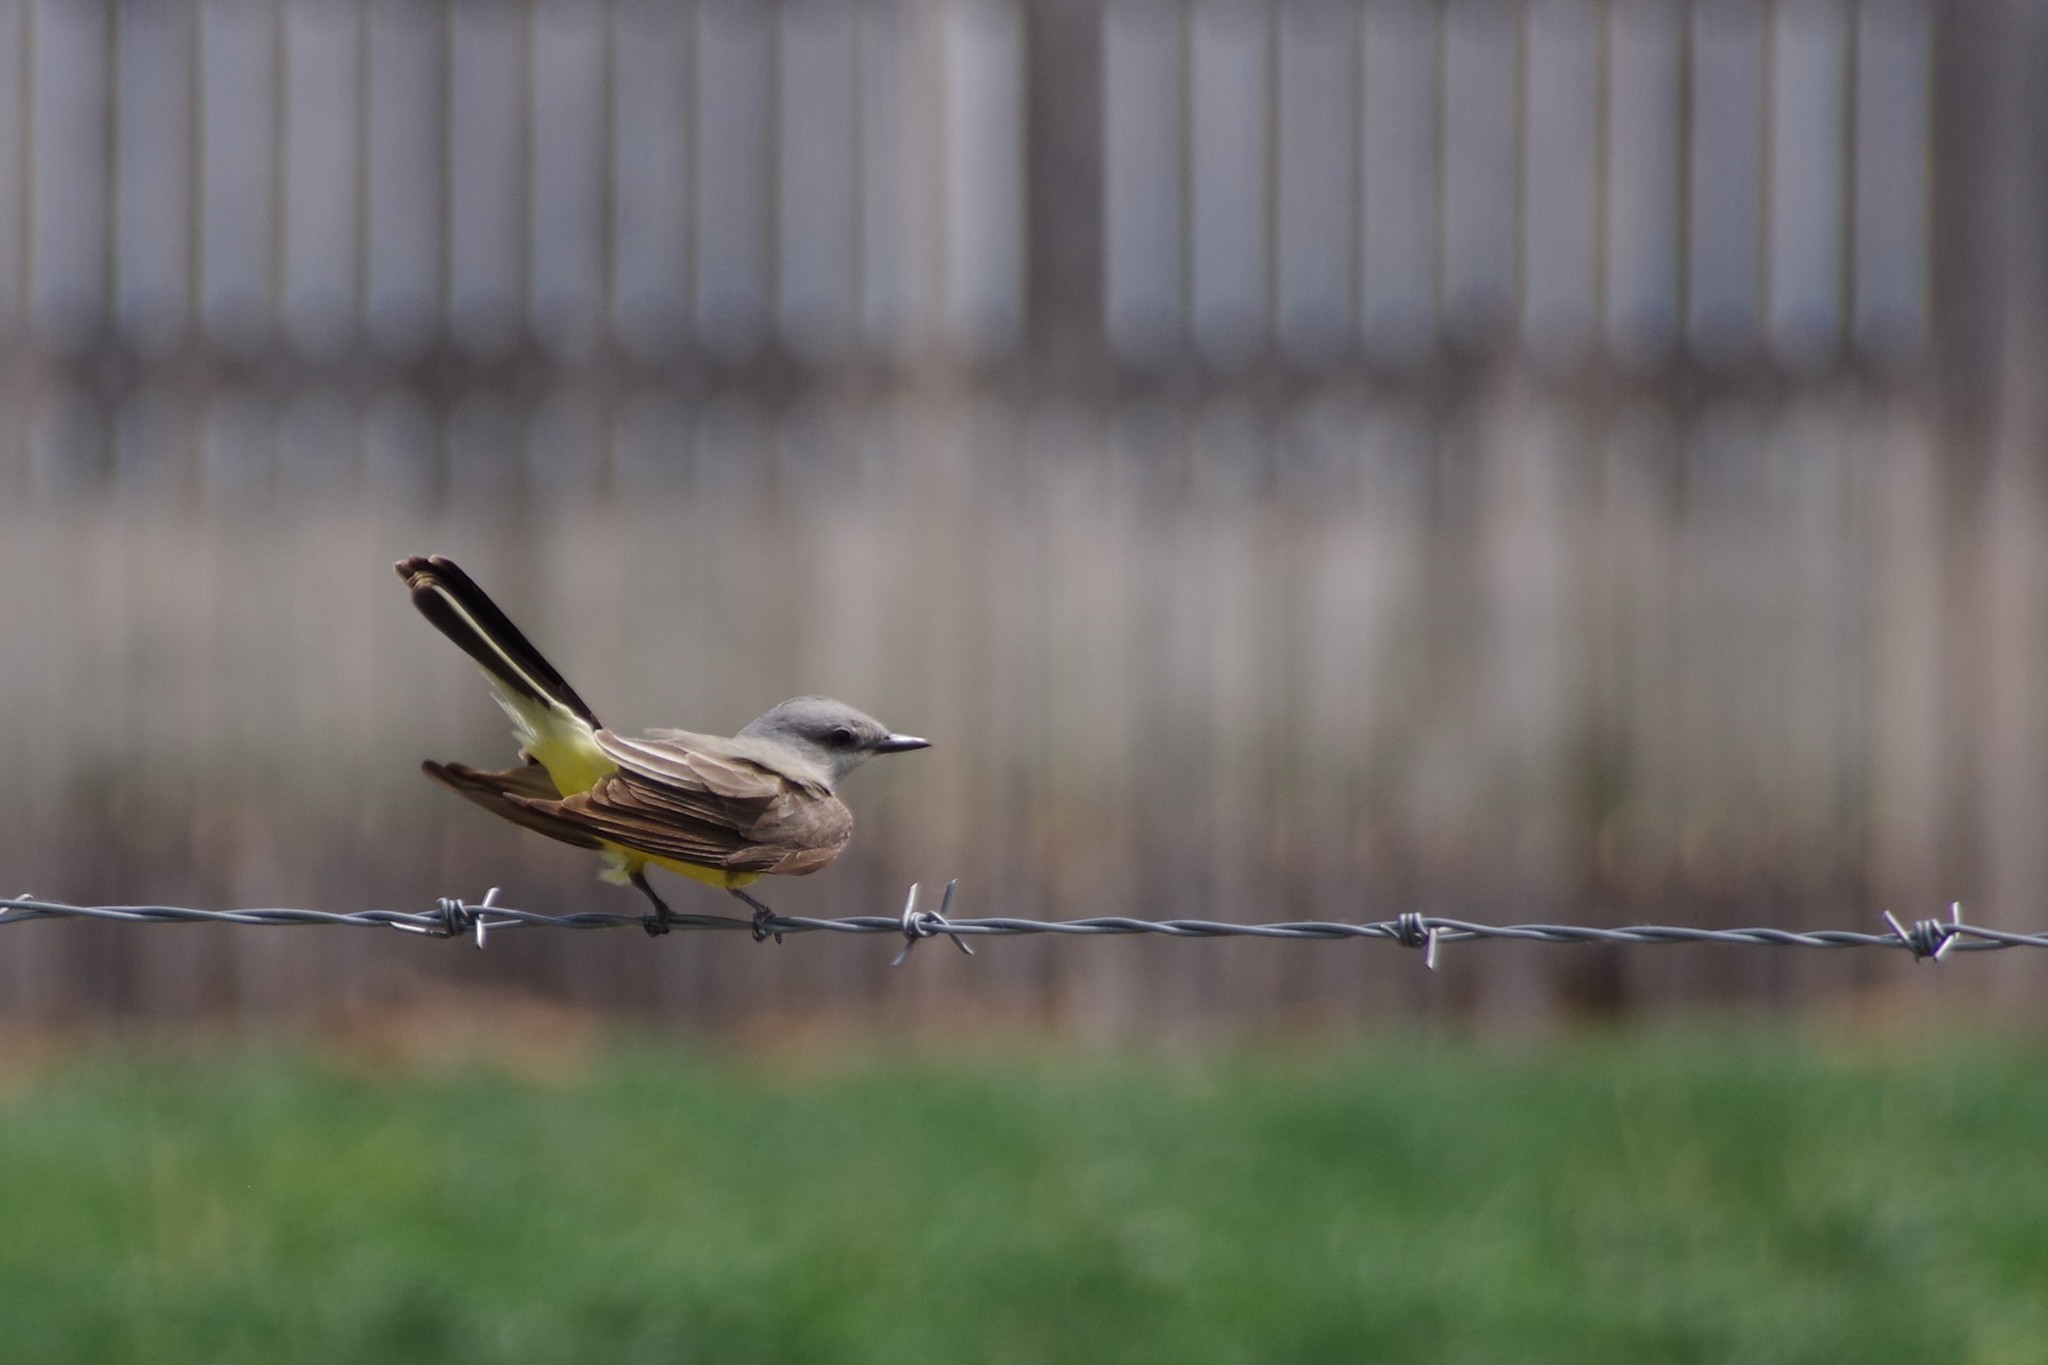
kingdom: Animalia
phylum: Chordata
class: Aves
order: Passeriformes
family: Tyrannidae
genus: Tyrannus
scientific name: Tyrannus verticalis
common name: Western kingbird
